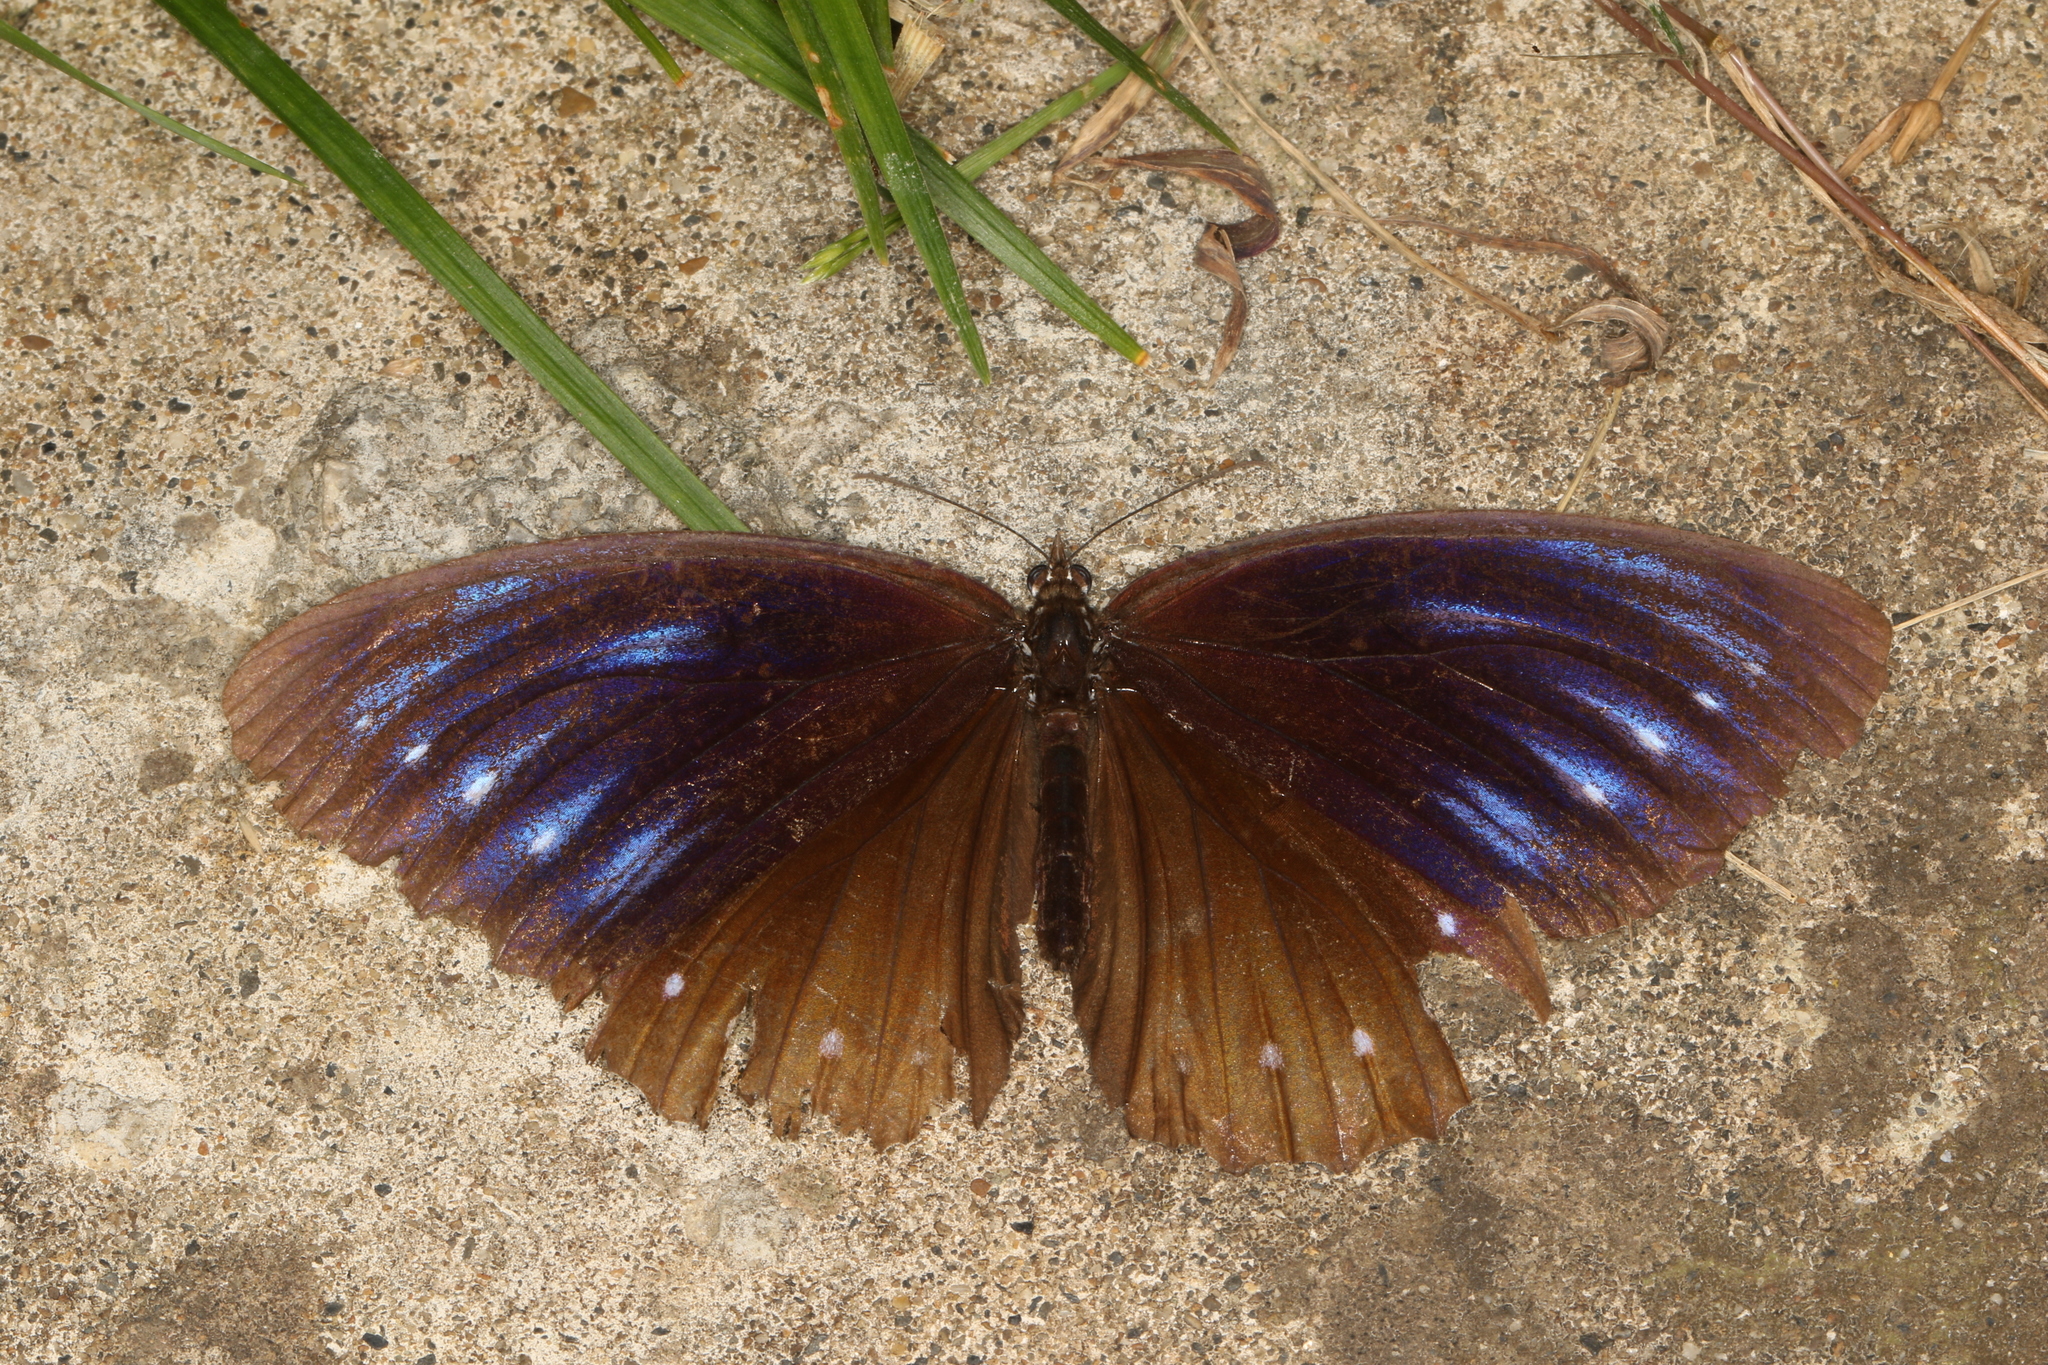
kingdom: Animalia
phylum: Arthropoda
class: Insecta
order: Lepidoptera
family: Nymphalidae
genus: Elymnias
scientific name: Elymnias patna
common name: Blue-striped palmfly
